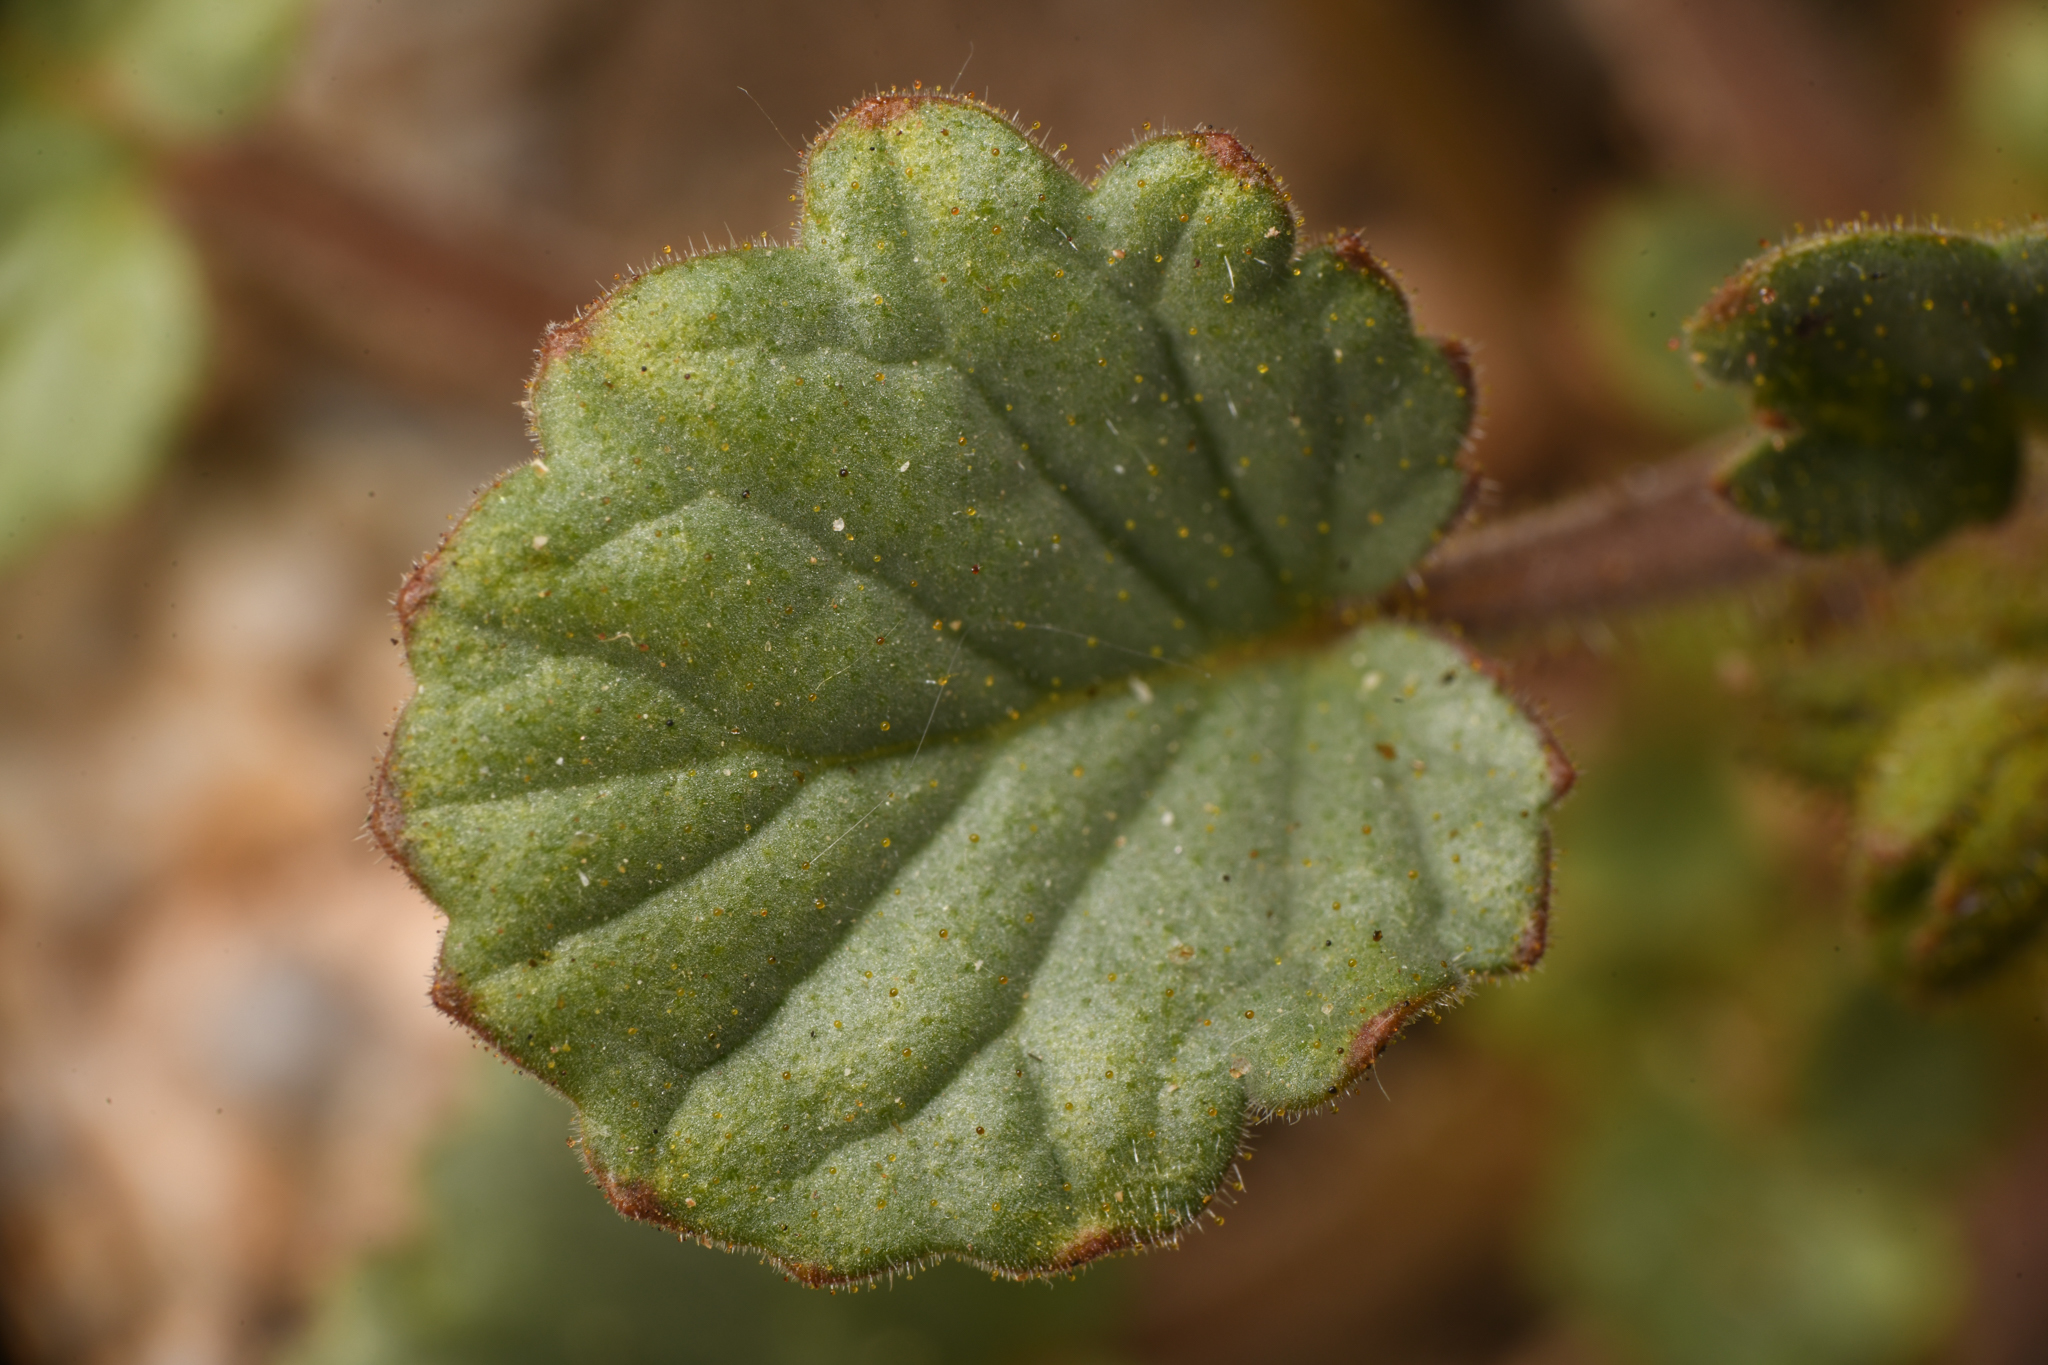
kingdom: Plantae
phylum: Tracheophyta
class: Magnoliopsida
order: Boraginales
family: Hydrophyllaceae
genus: Phacelia
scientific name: Phacelia campanularia
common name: California bluebell
